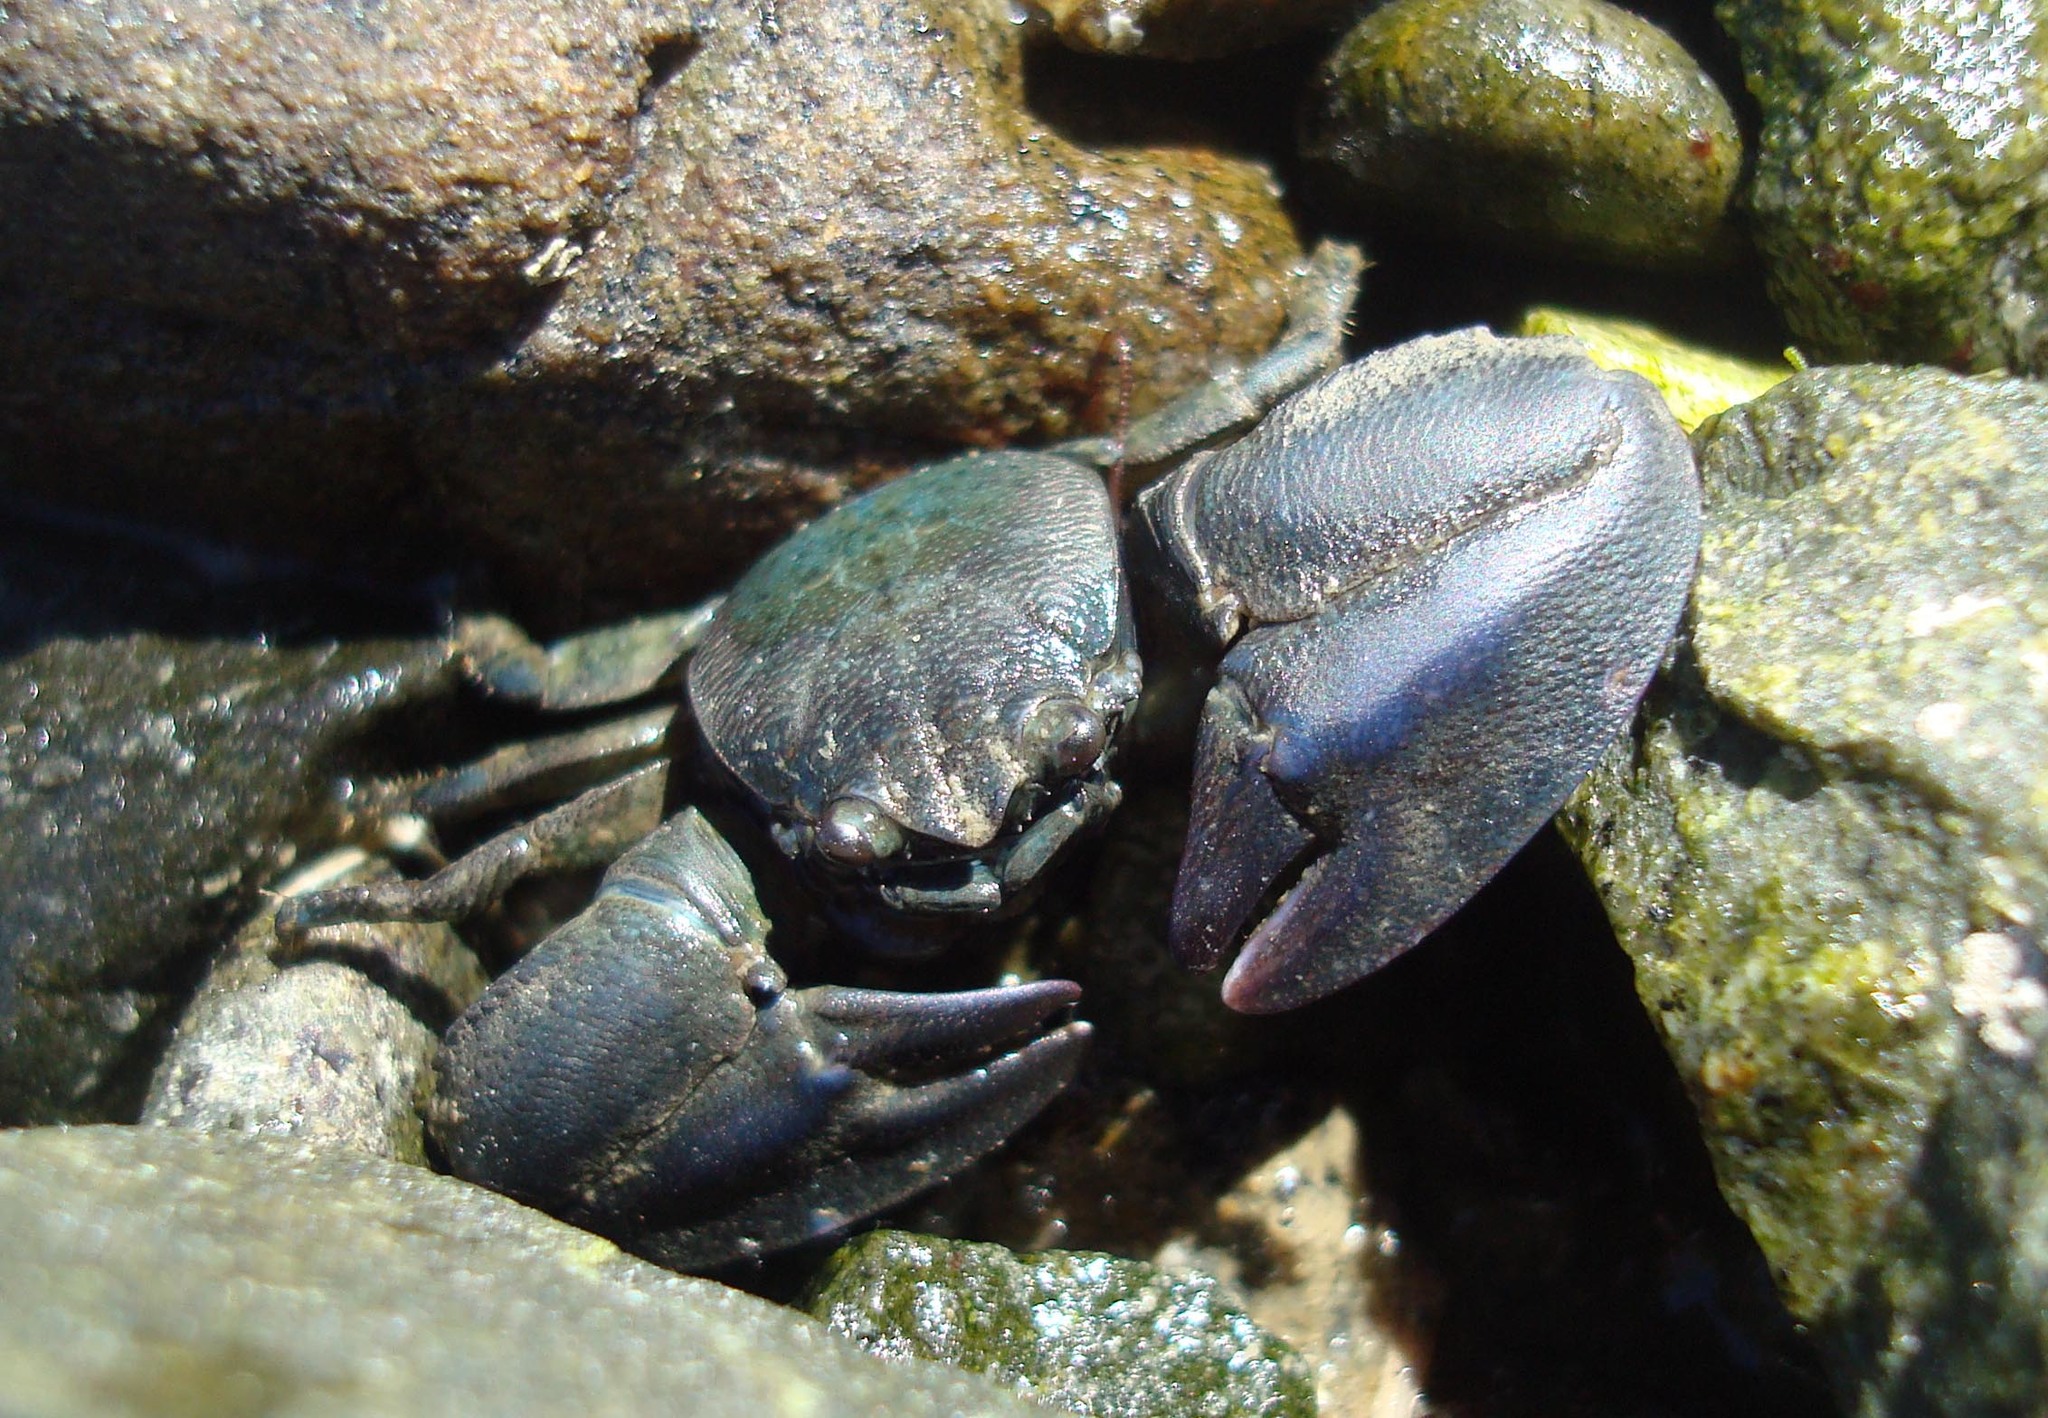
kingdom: Animalia
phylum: Arthropoda
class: Malacostraca
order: Decapoda
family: Porcellanidae
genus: Petrolisthes
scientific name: Petrolisthes elongatus
